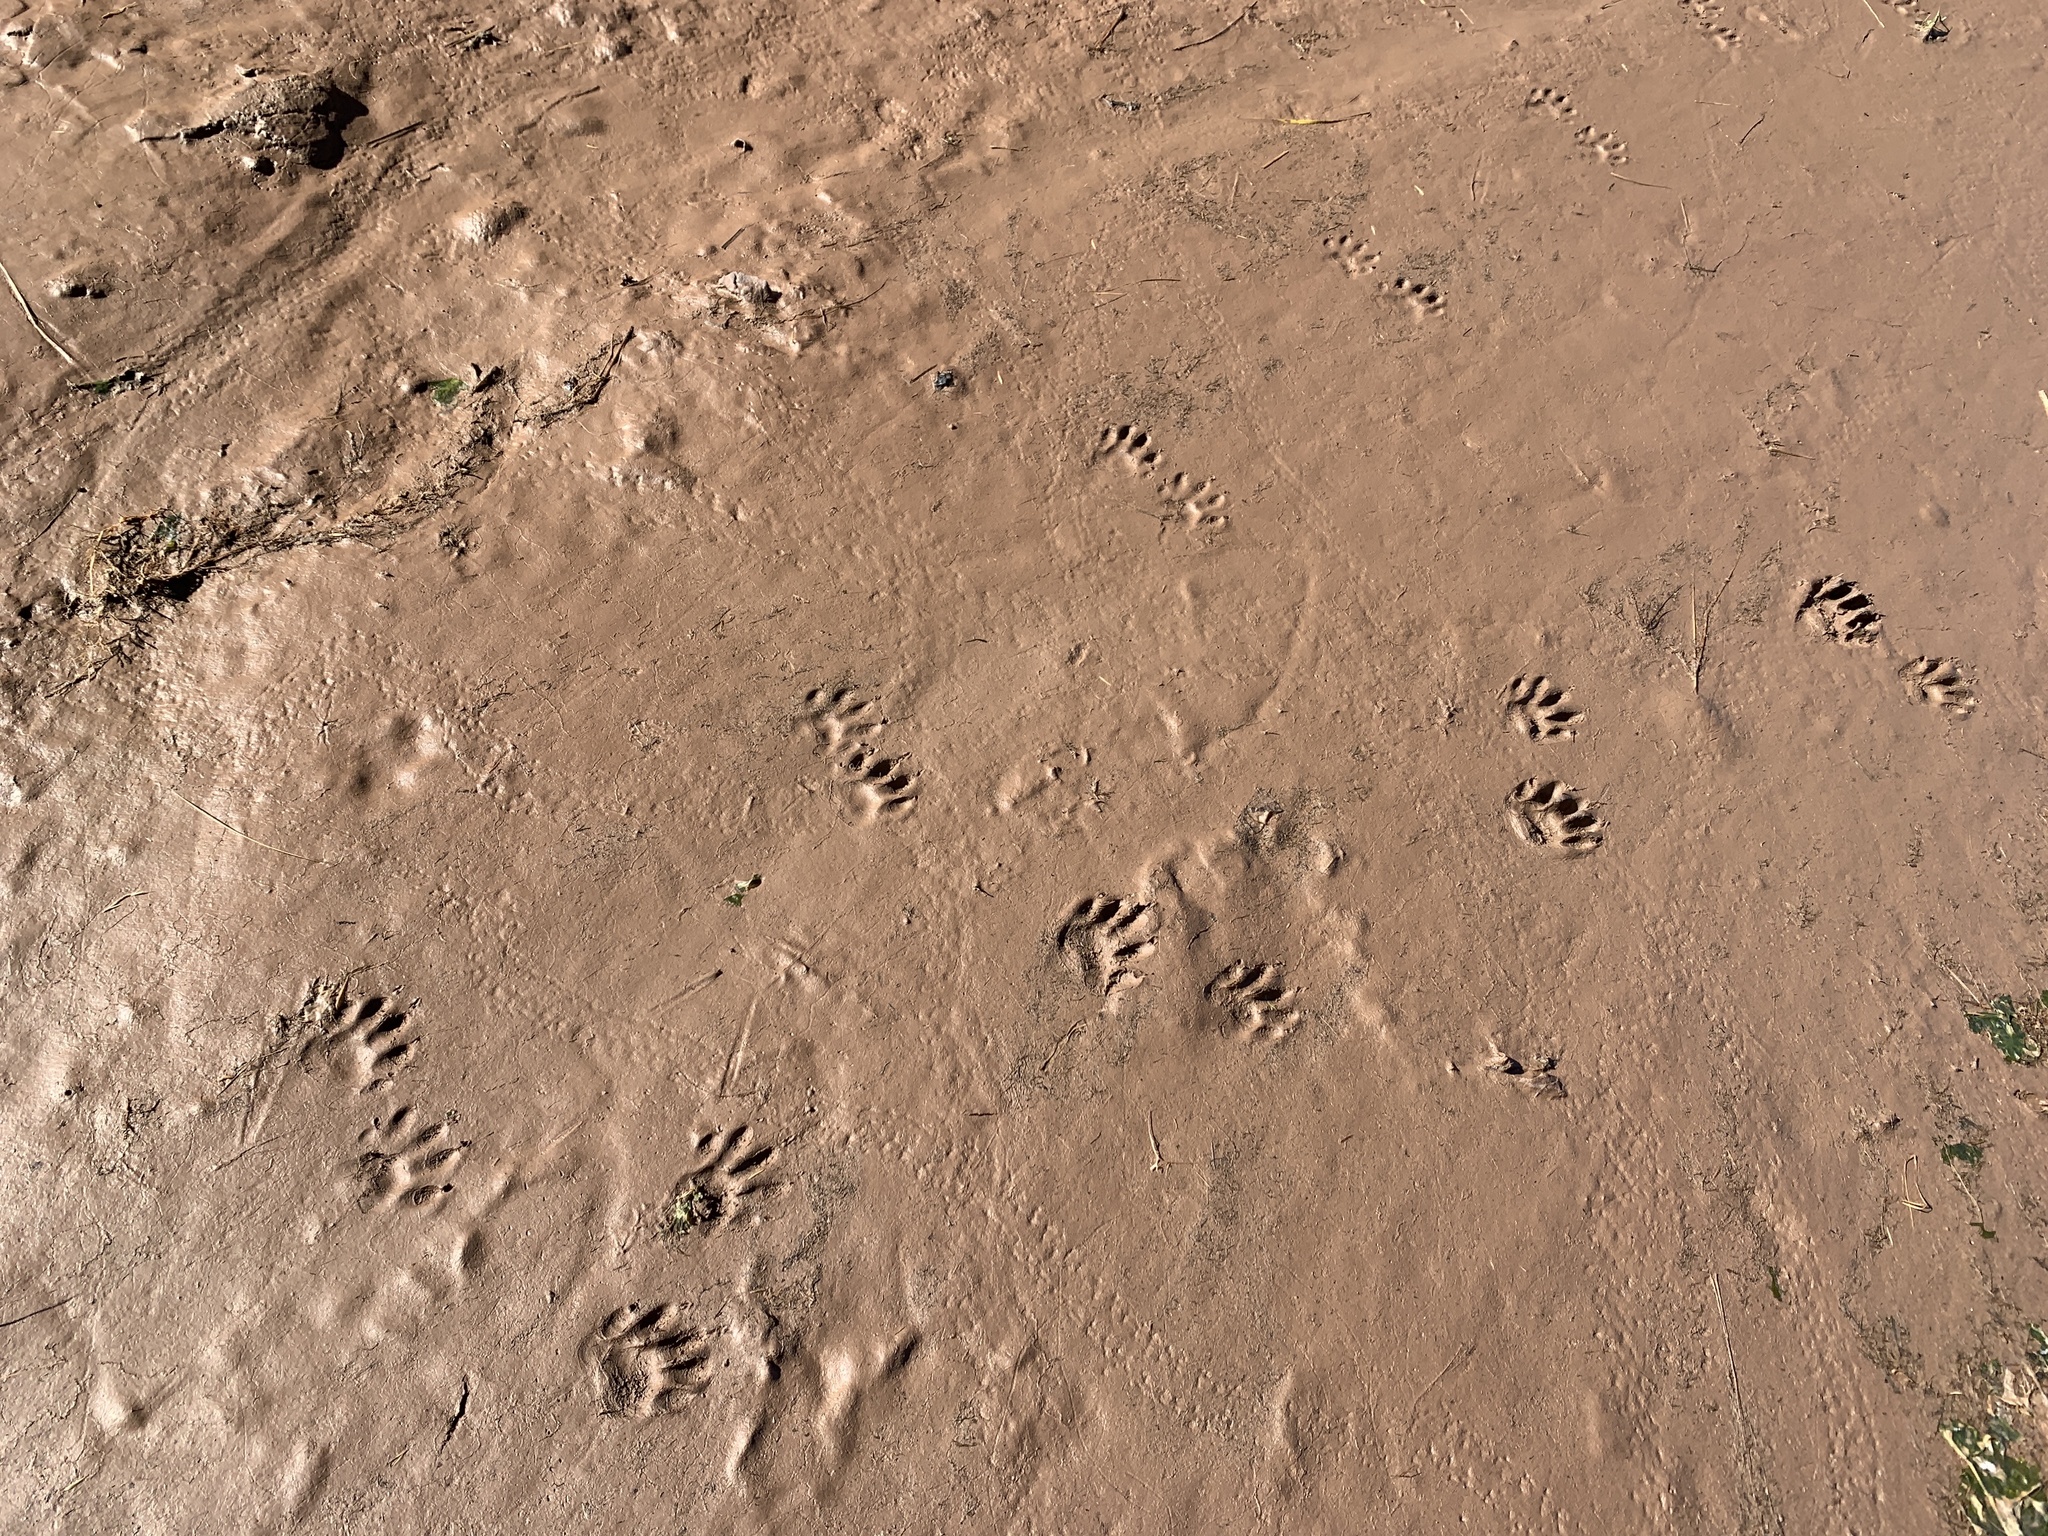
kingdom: Animalia
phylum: Arthropoda
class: Malacostraca
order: Decapoda
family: Carcinidae
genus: Carcinus
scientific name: Carcinus maenas
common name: European green crab
